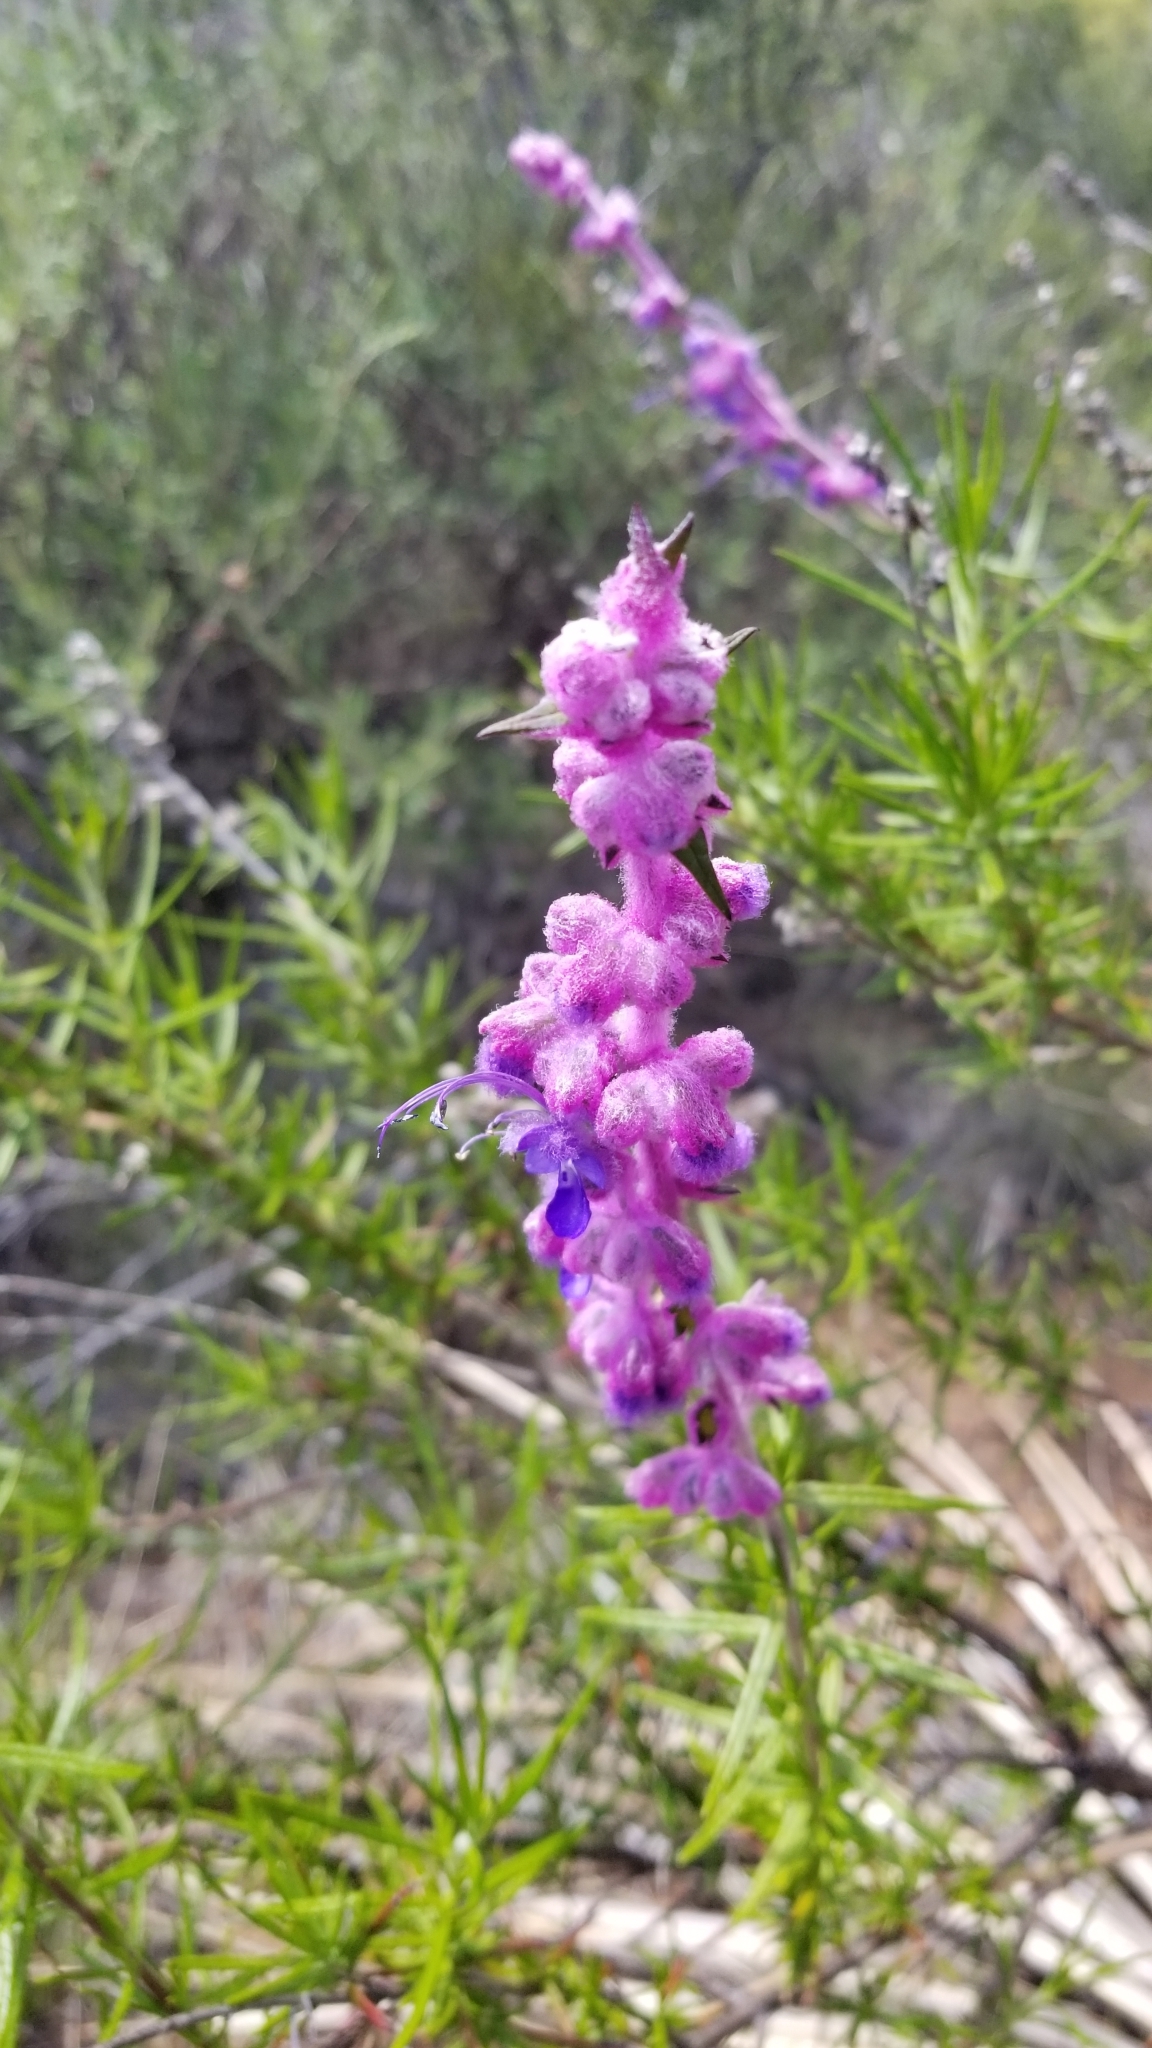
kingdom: Plantae
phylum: Tracheophyta
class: Magnoliopsida
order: Lamiales
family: Lamiaceae
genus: Trichostema
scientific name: Trichostema lanatum
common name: Woolly bluecurls
